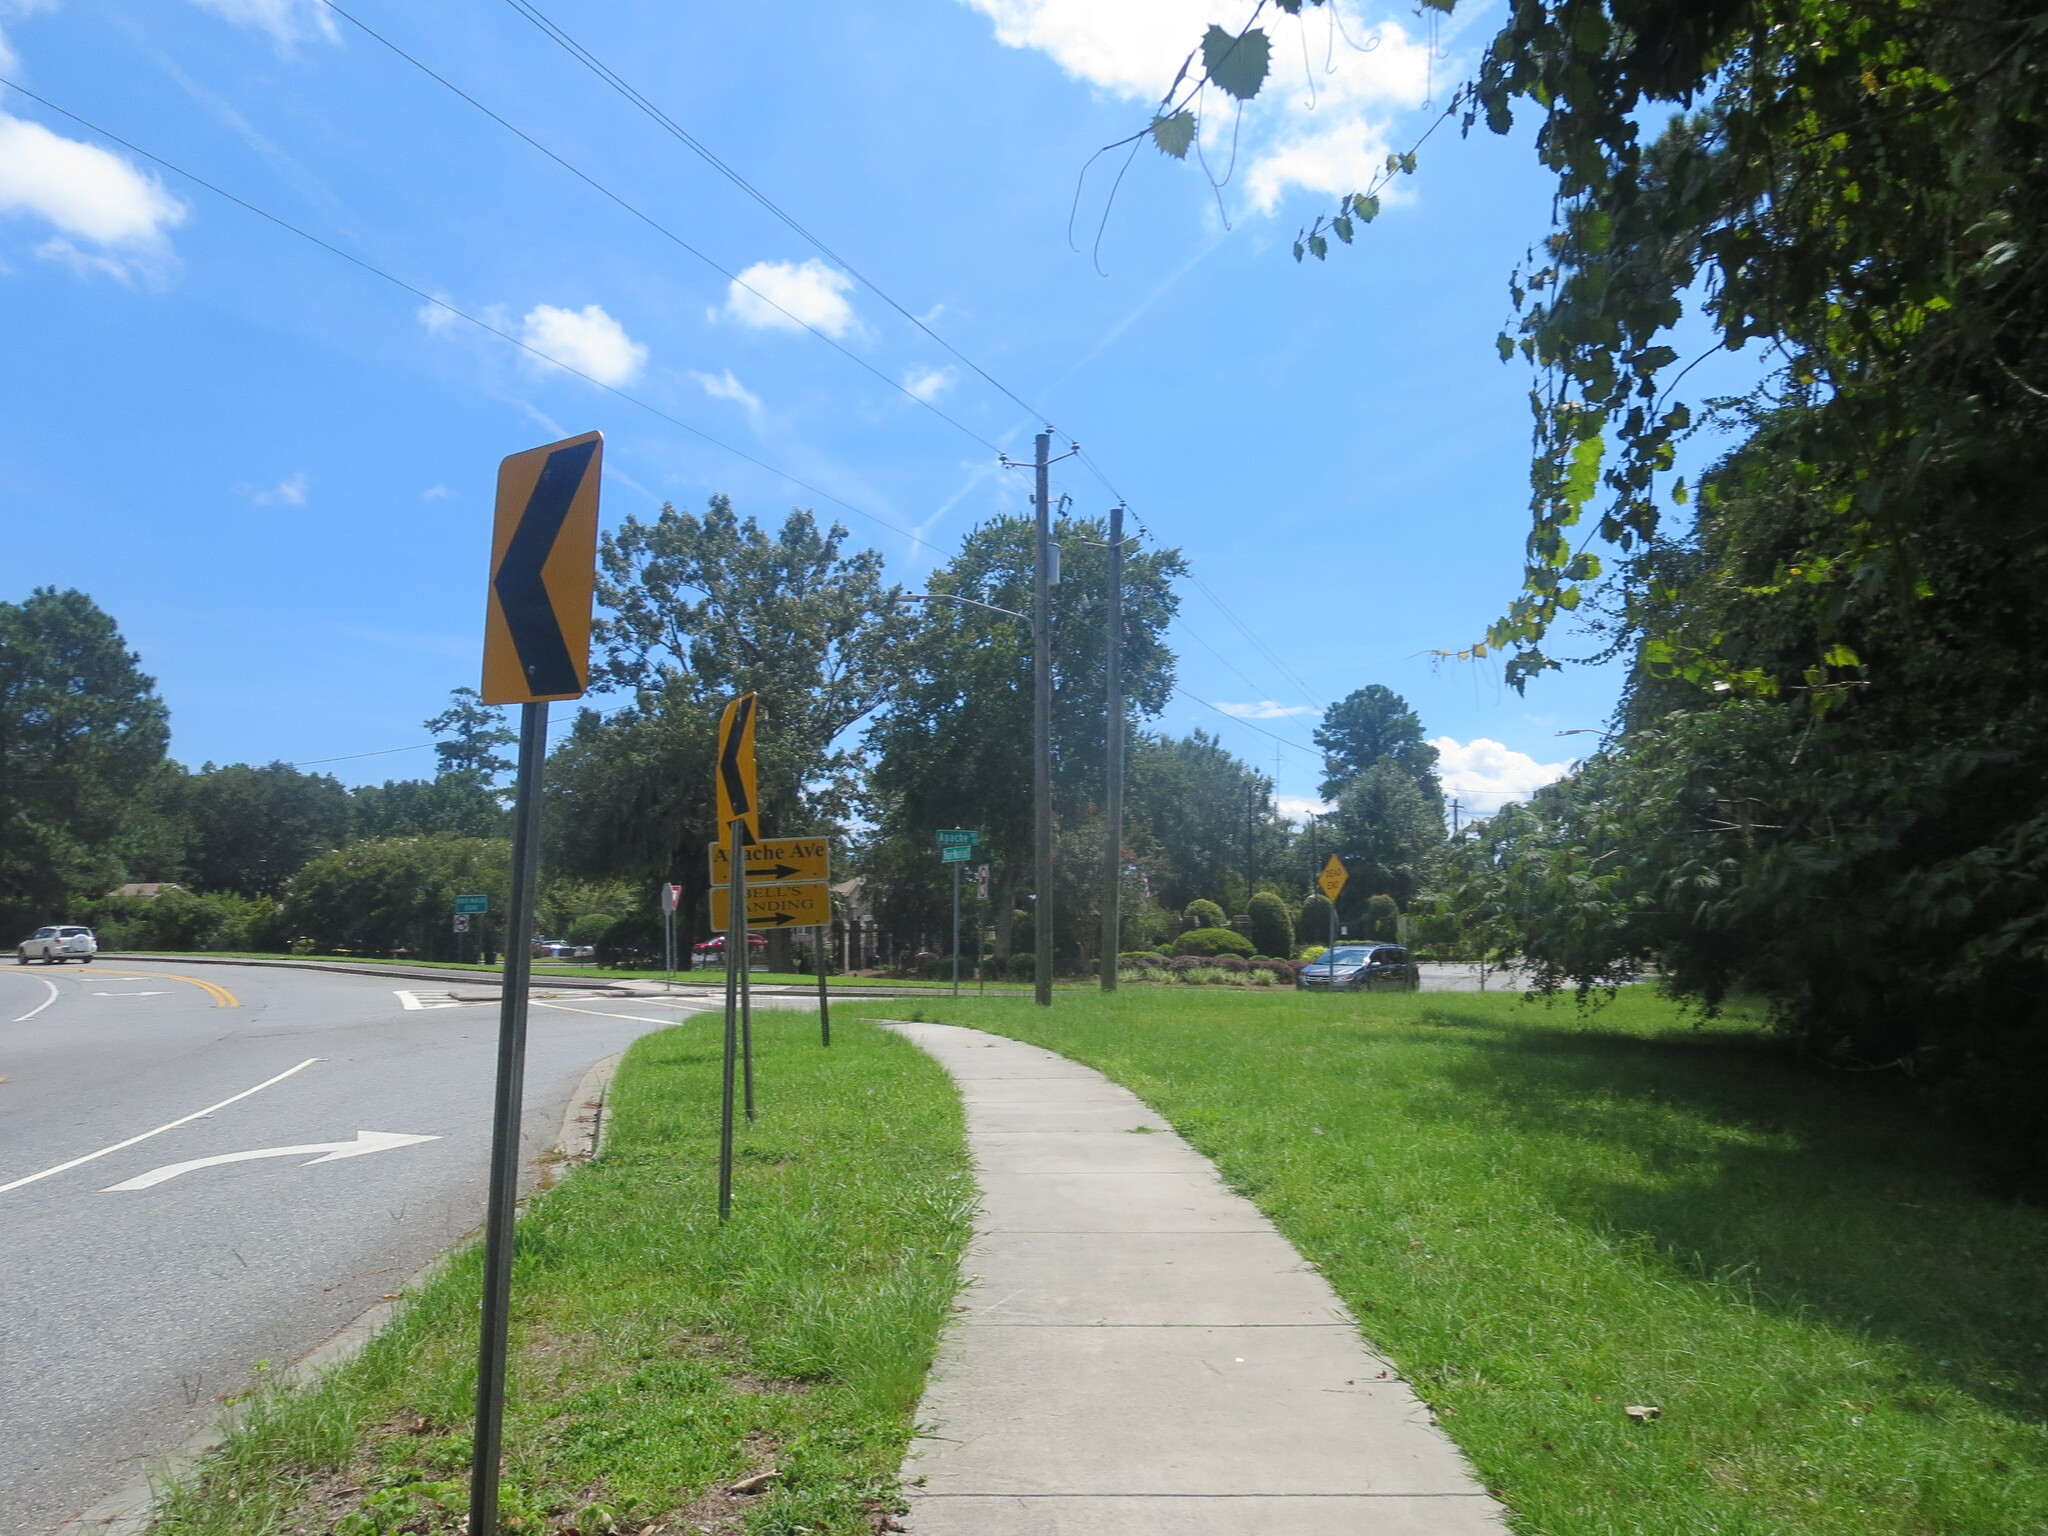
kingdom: Plantae
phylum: Tracheophyta
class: Magnoliopsida
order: Vitales
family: Vitaceae
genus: Vitis
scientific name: Vitis rotundifolia
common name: Muscadine grape
